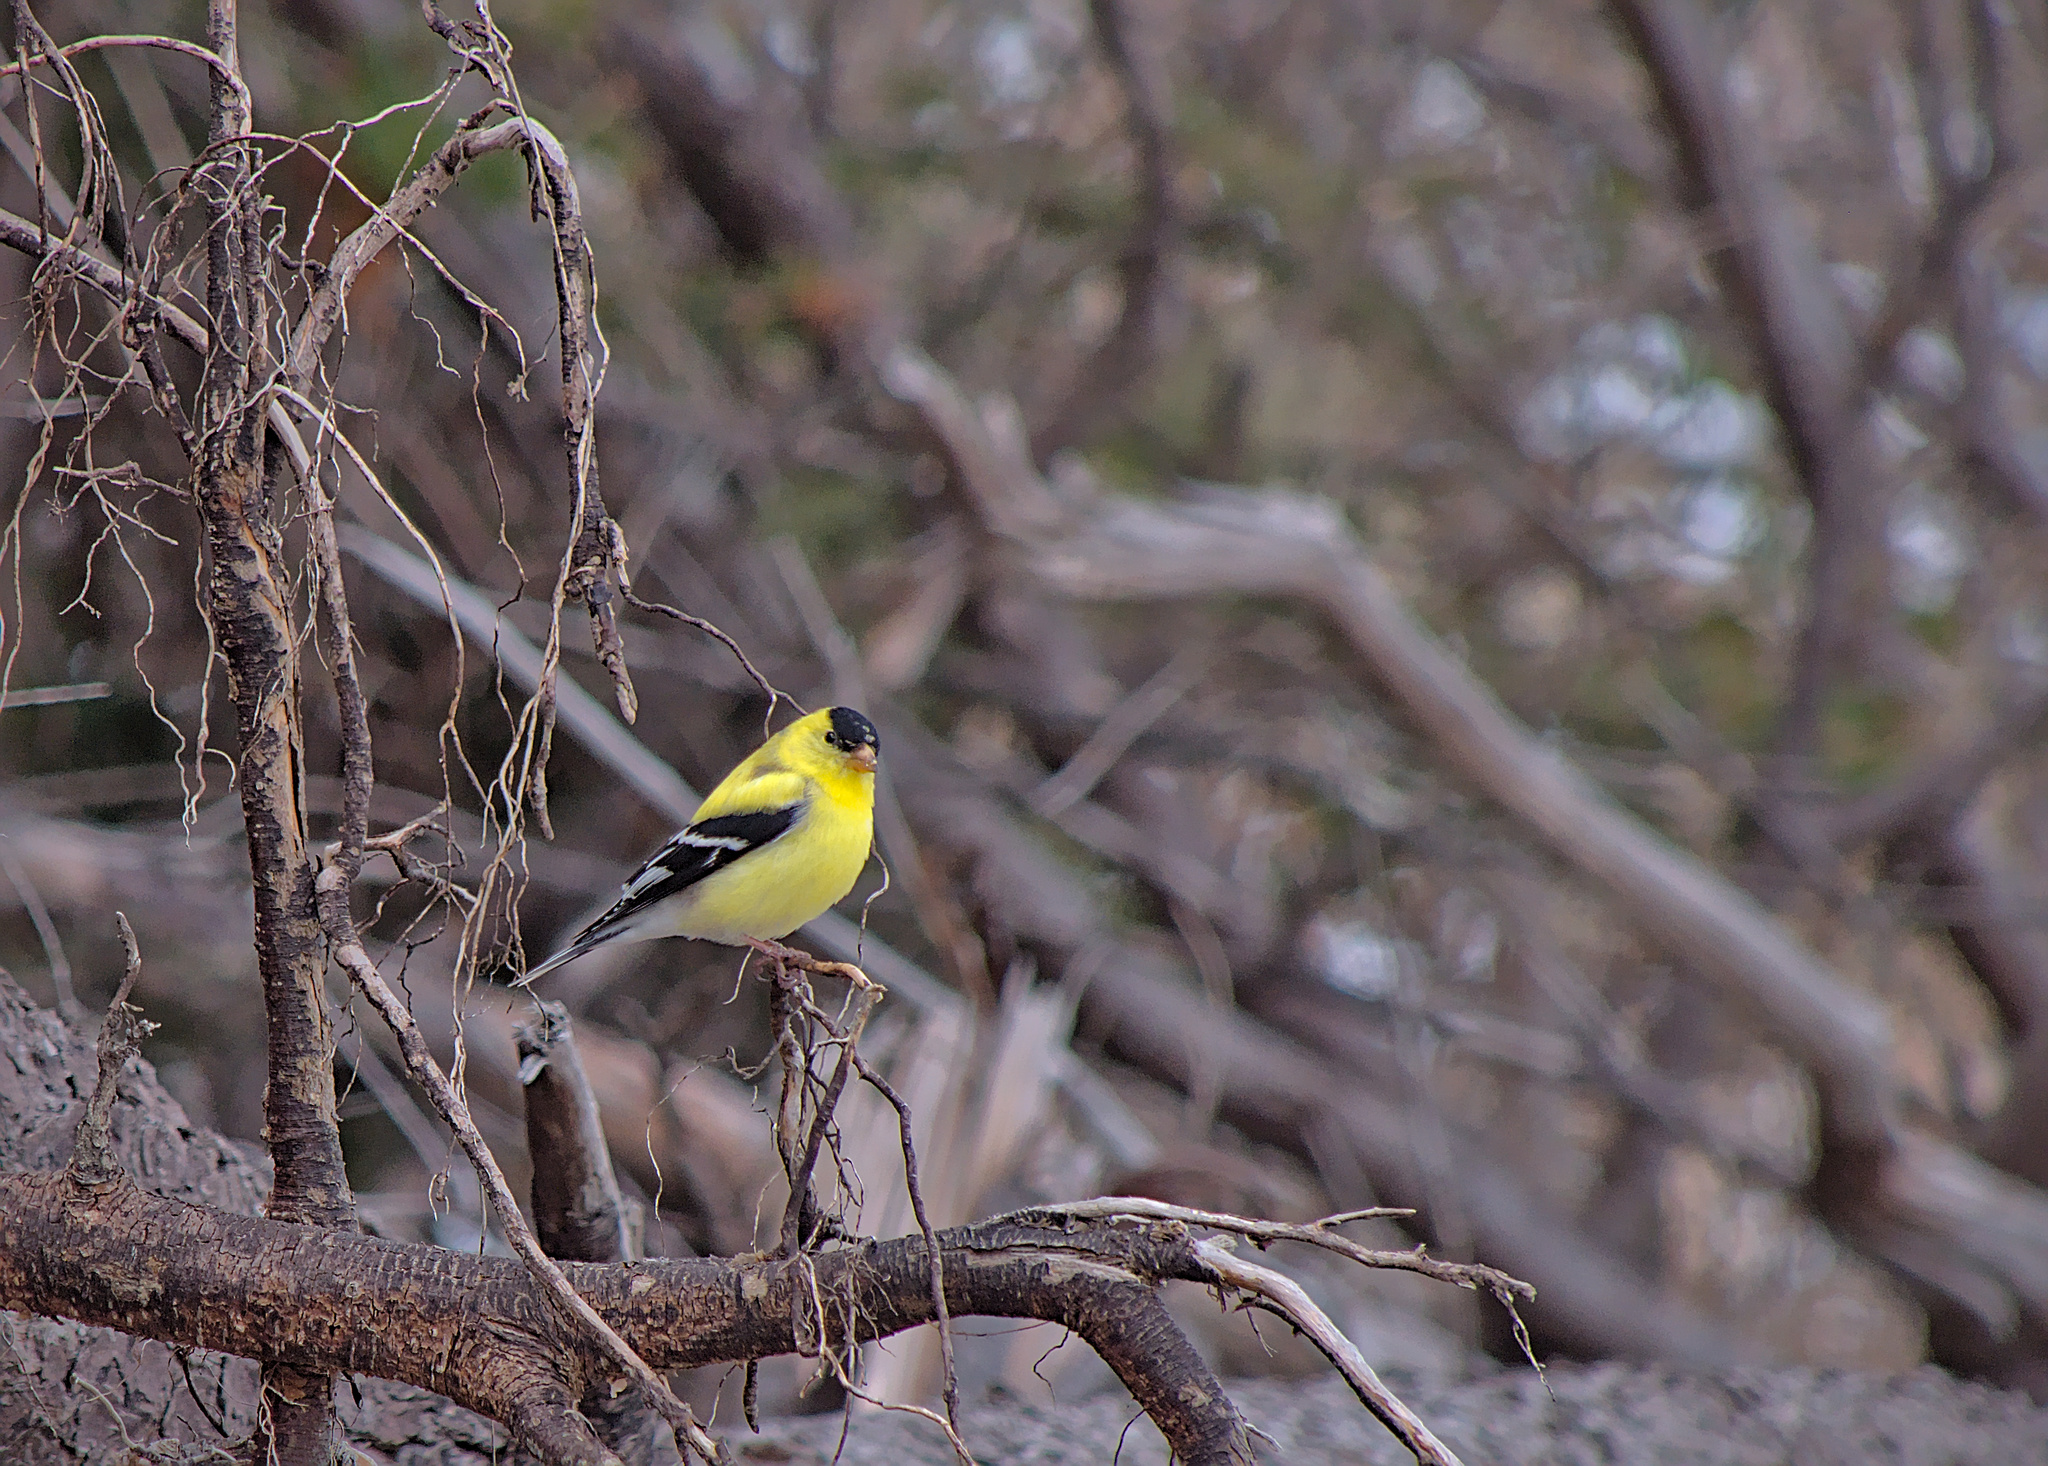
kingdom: Animalia
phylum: Chordata
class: Aves
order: Passeriformes
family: Fringillidae
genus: Spinus
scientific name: Spinus tristis
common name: American goldfinch
